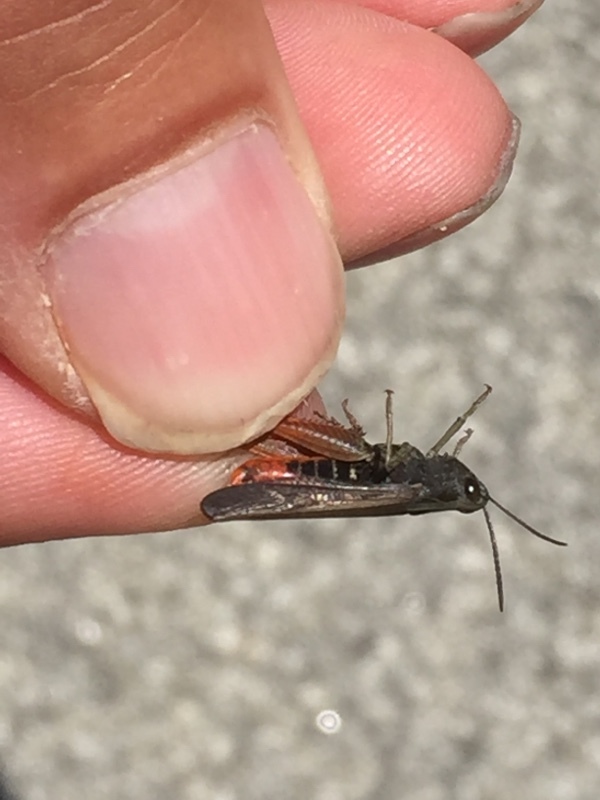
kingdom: Animalia
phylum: Arthropoda
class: Insecta
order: Orthoptera
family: Acrididae
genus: Omocestus
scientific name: Omocestus rufipes
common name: Woodland grasshopper
